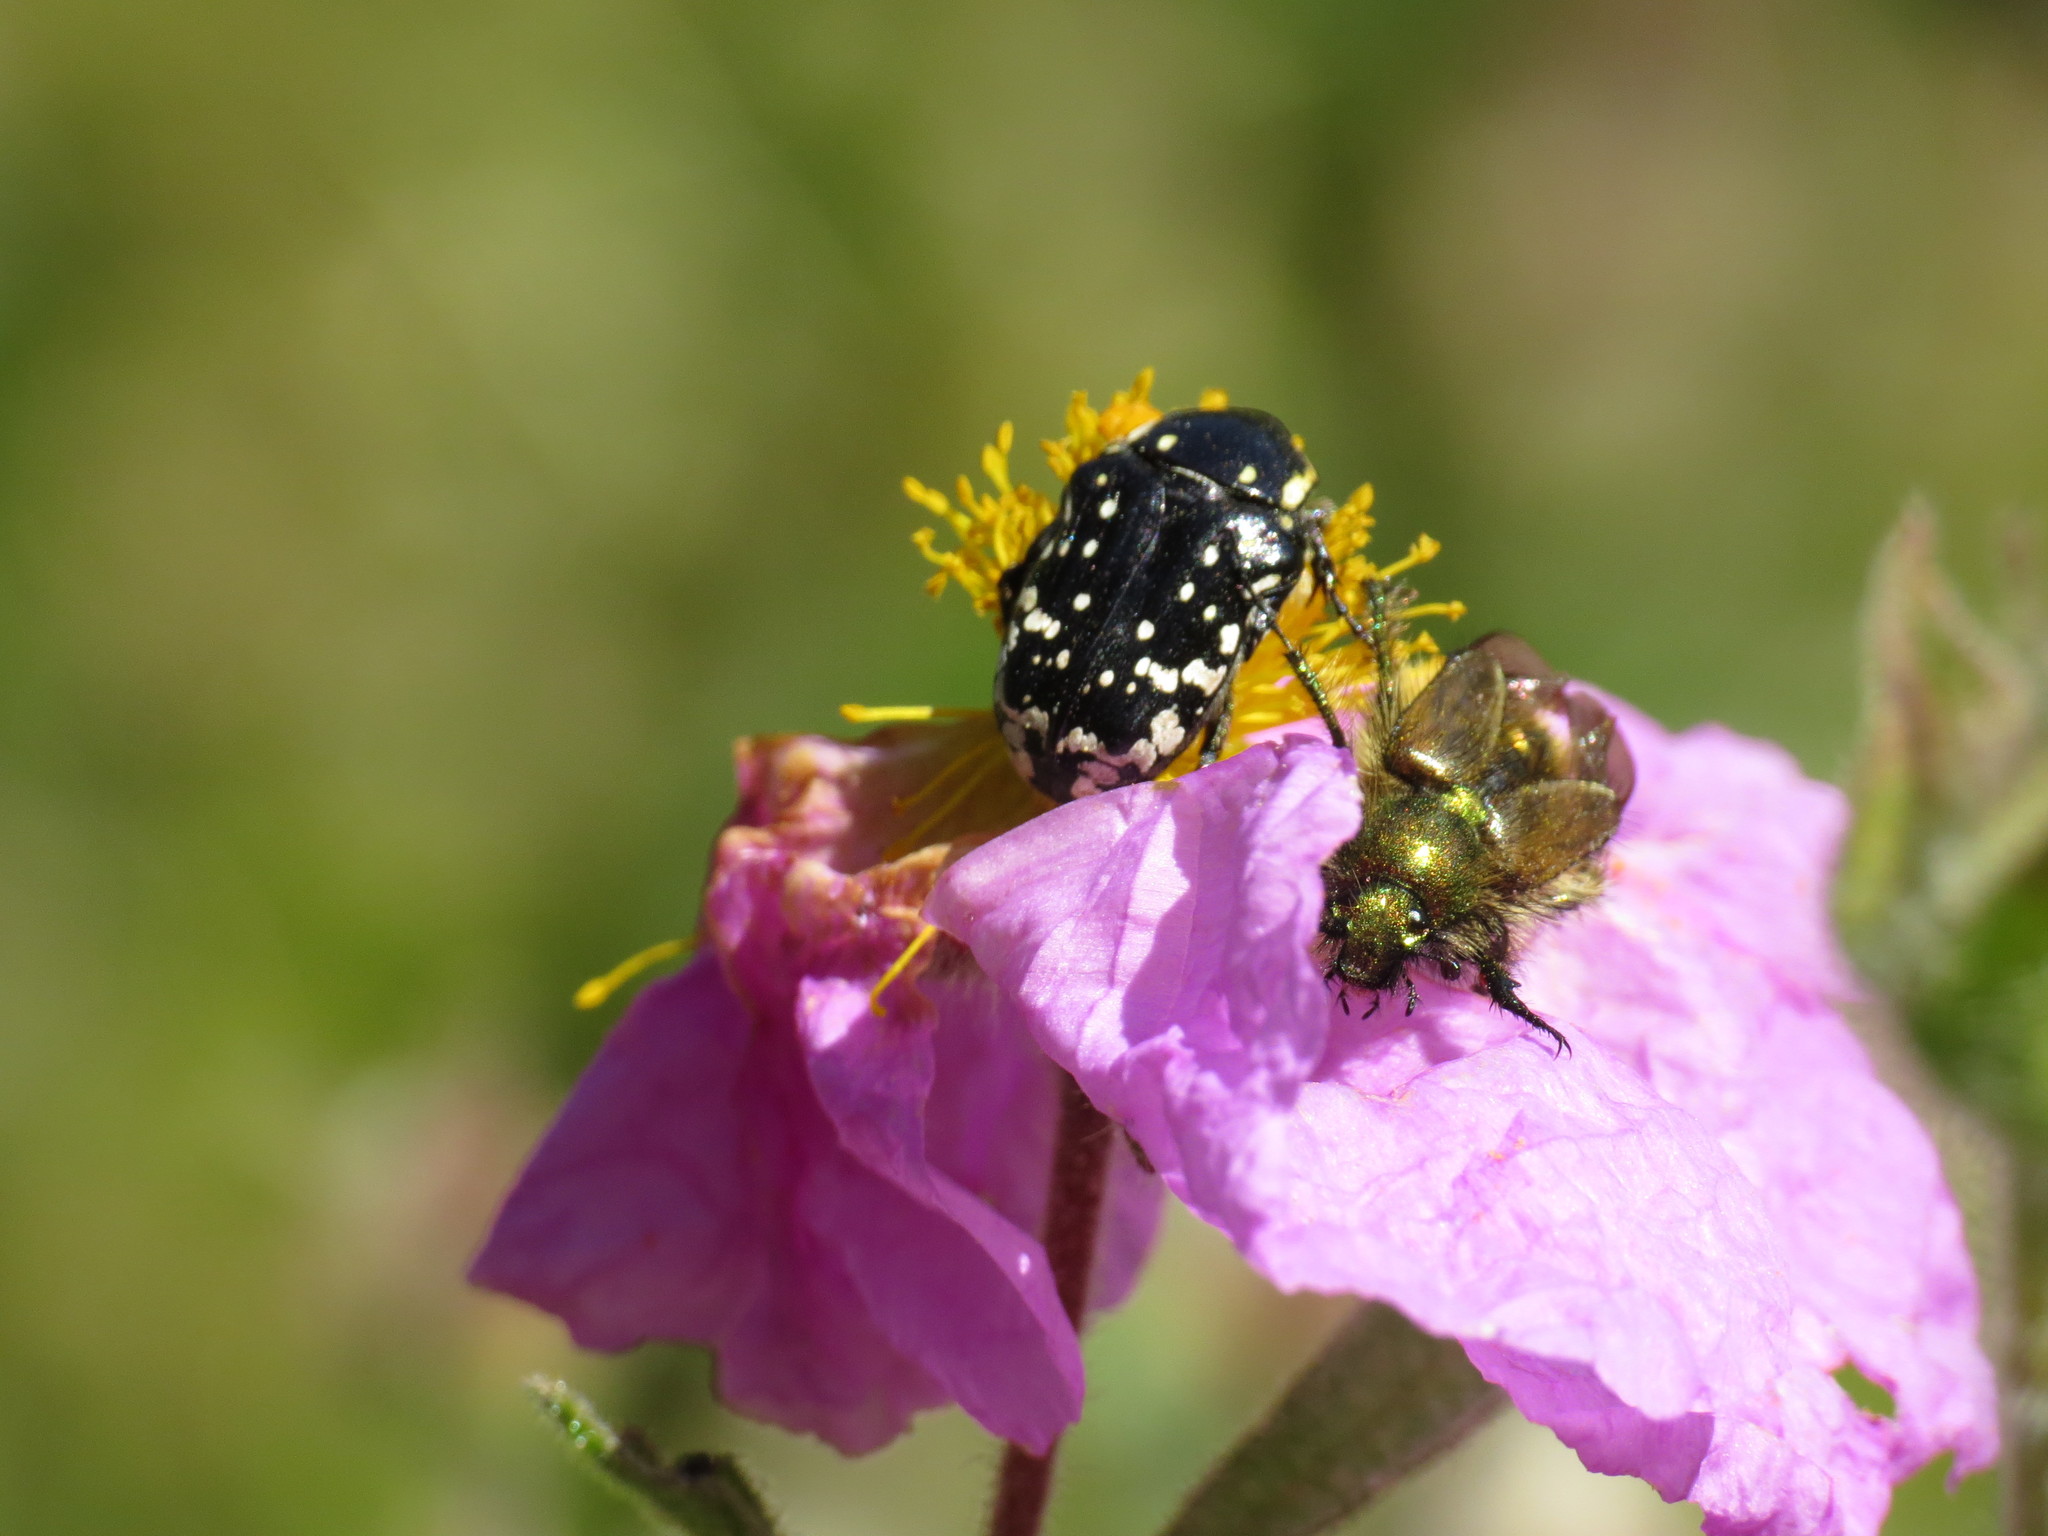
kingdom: Animalia
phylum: Arthropoda
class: Insecta
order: Coleoptera
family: Scarabaeidae
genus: Oxythyrea
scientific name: Oxythyrea cinctella
